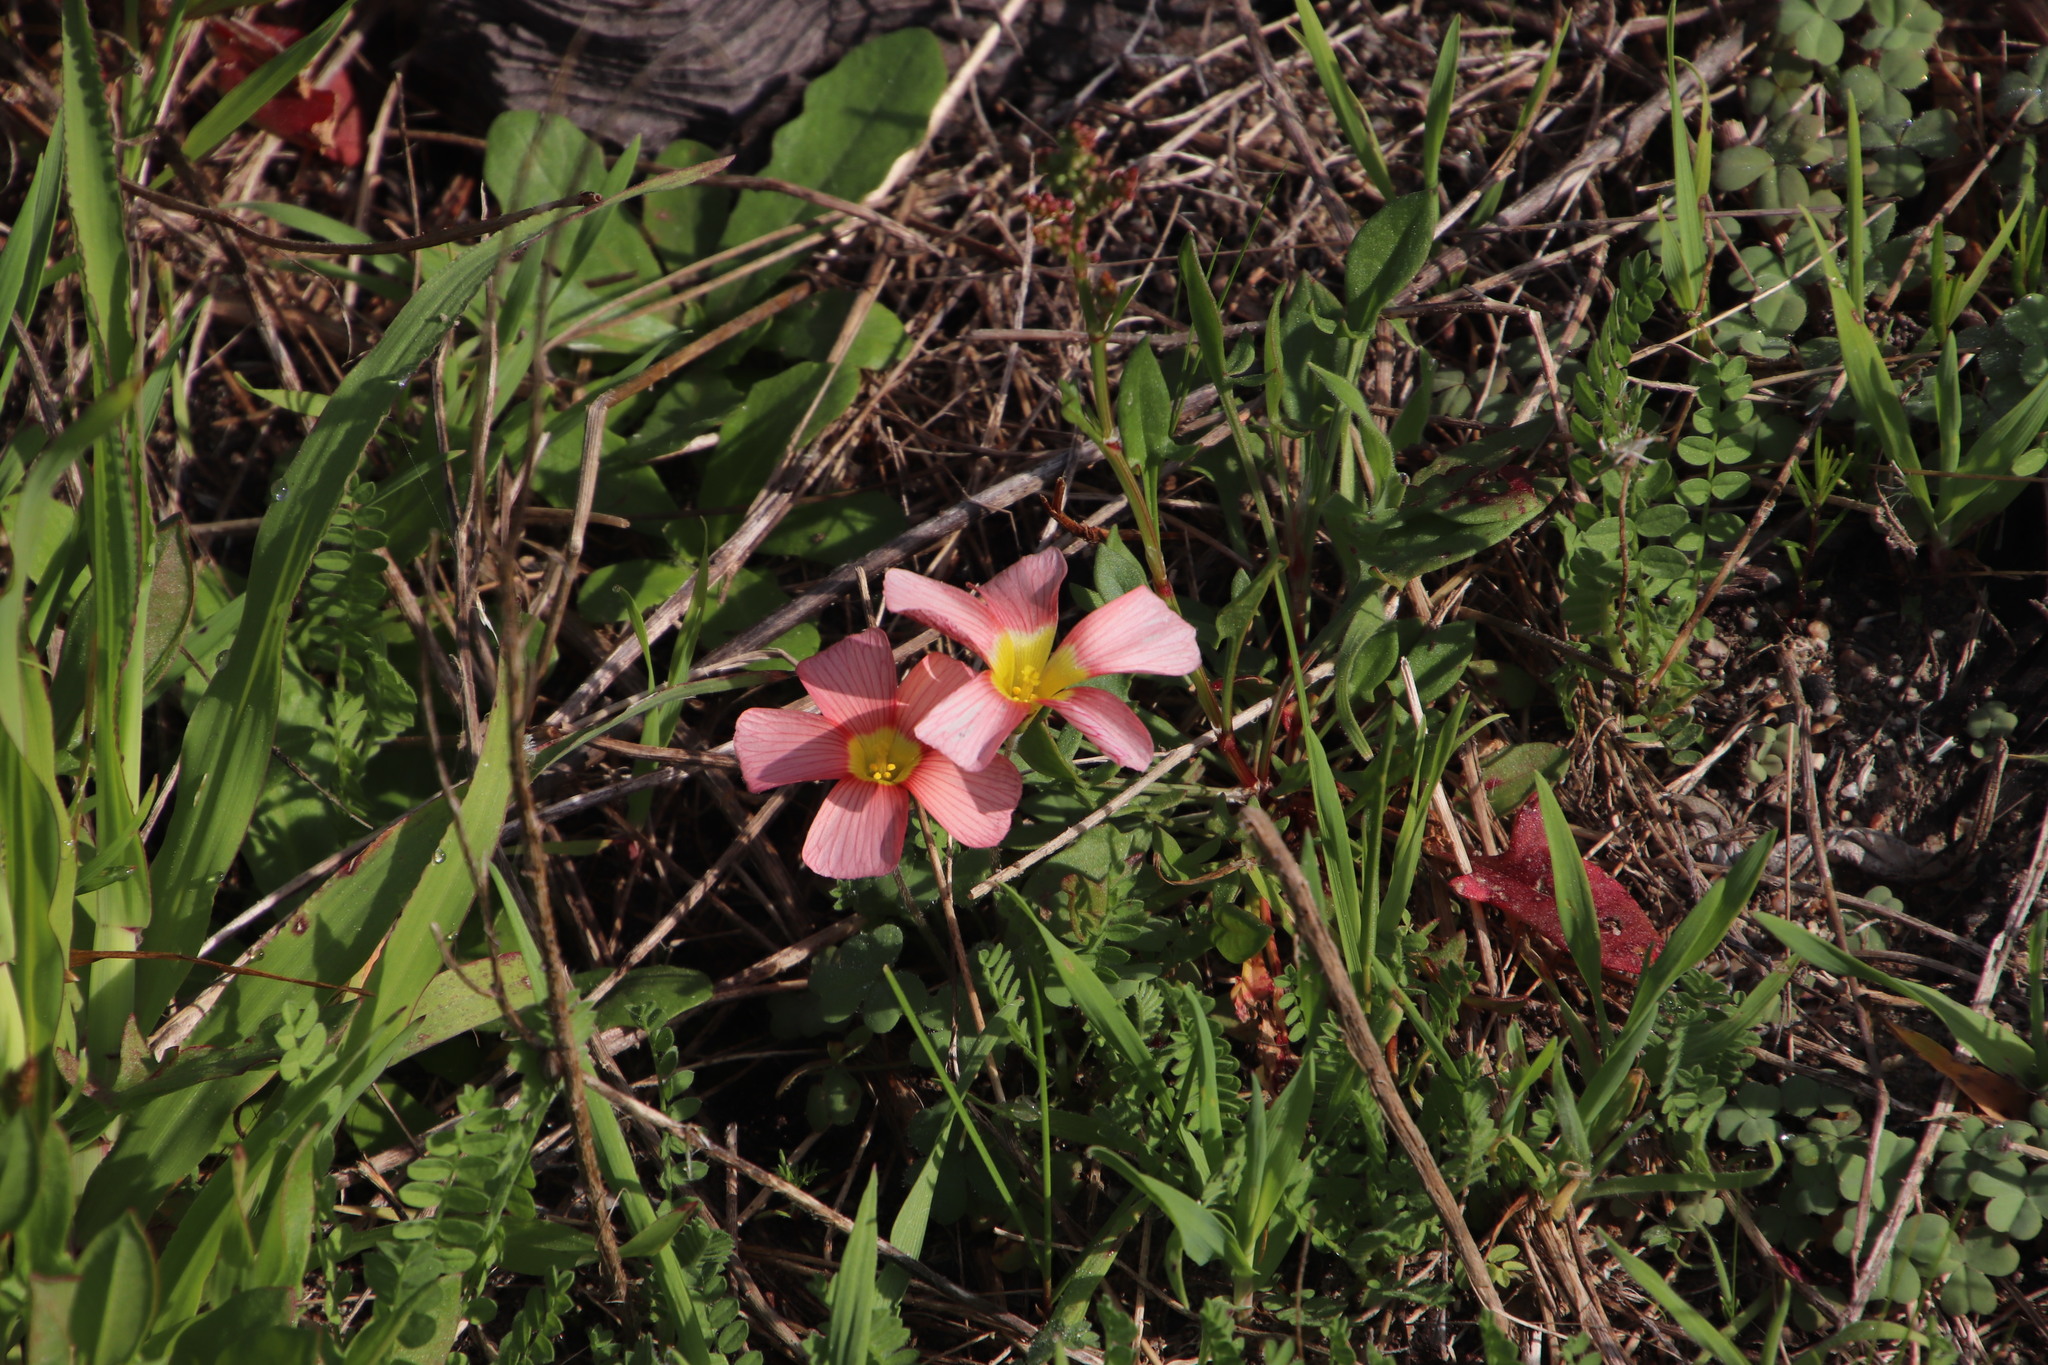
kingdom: Plantae
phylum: Tracheophyta
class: Magnoliopsida
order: Oxalidales
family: Oxalidaceae
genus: Oxalis
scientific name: Oxalis obtusa
